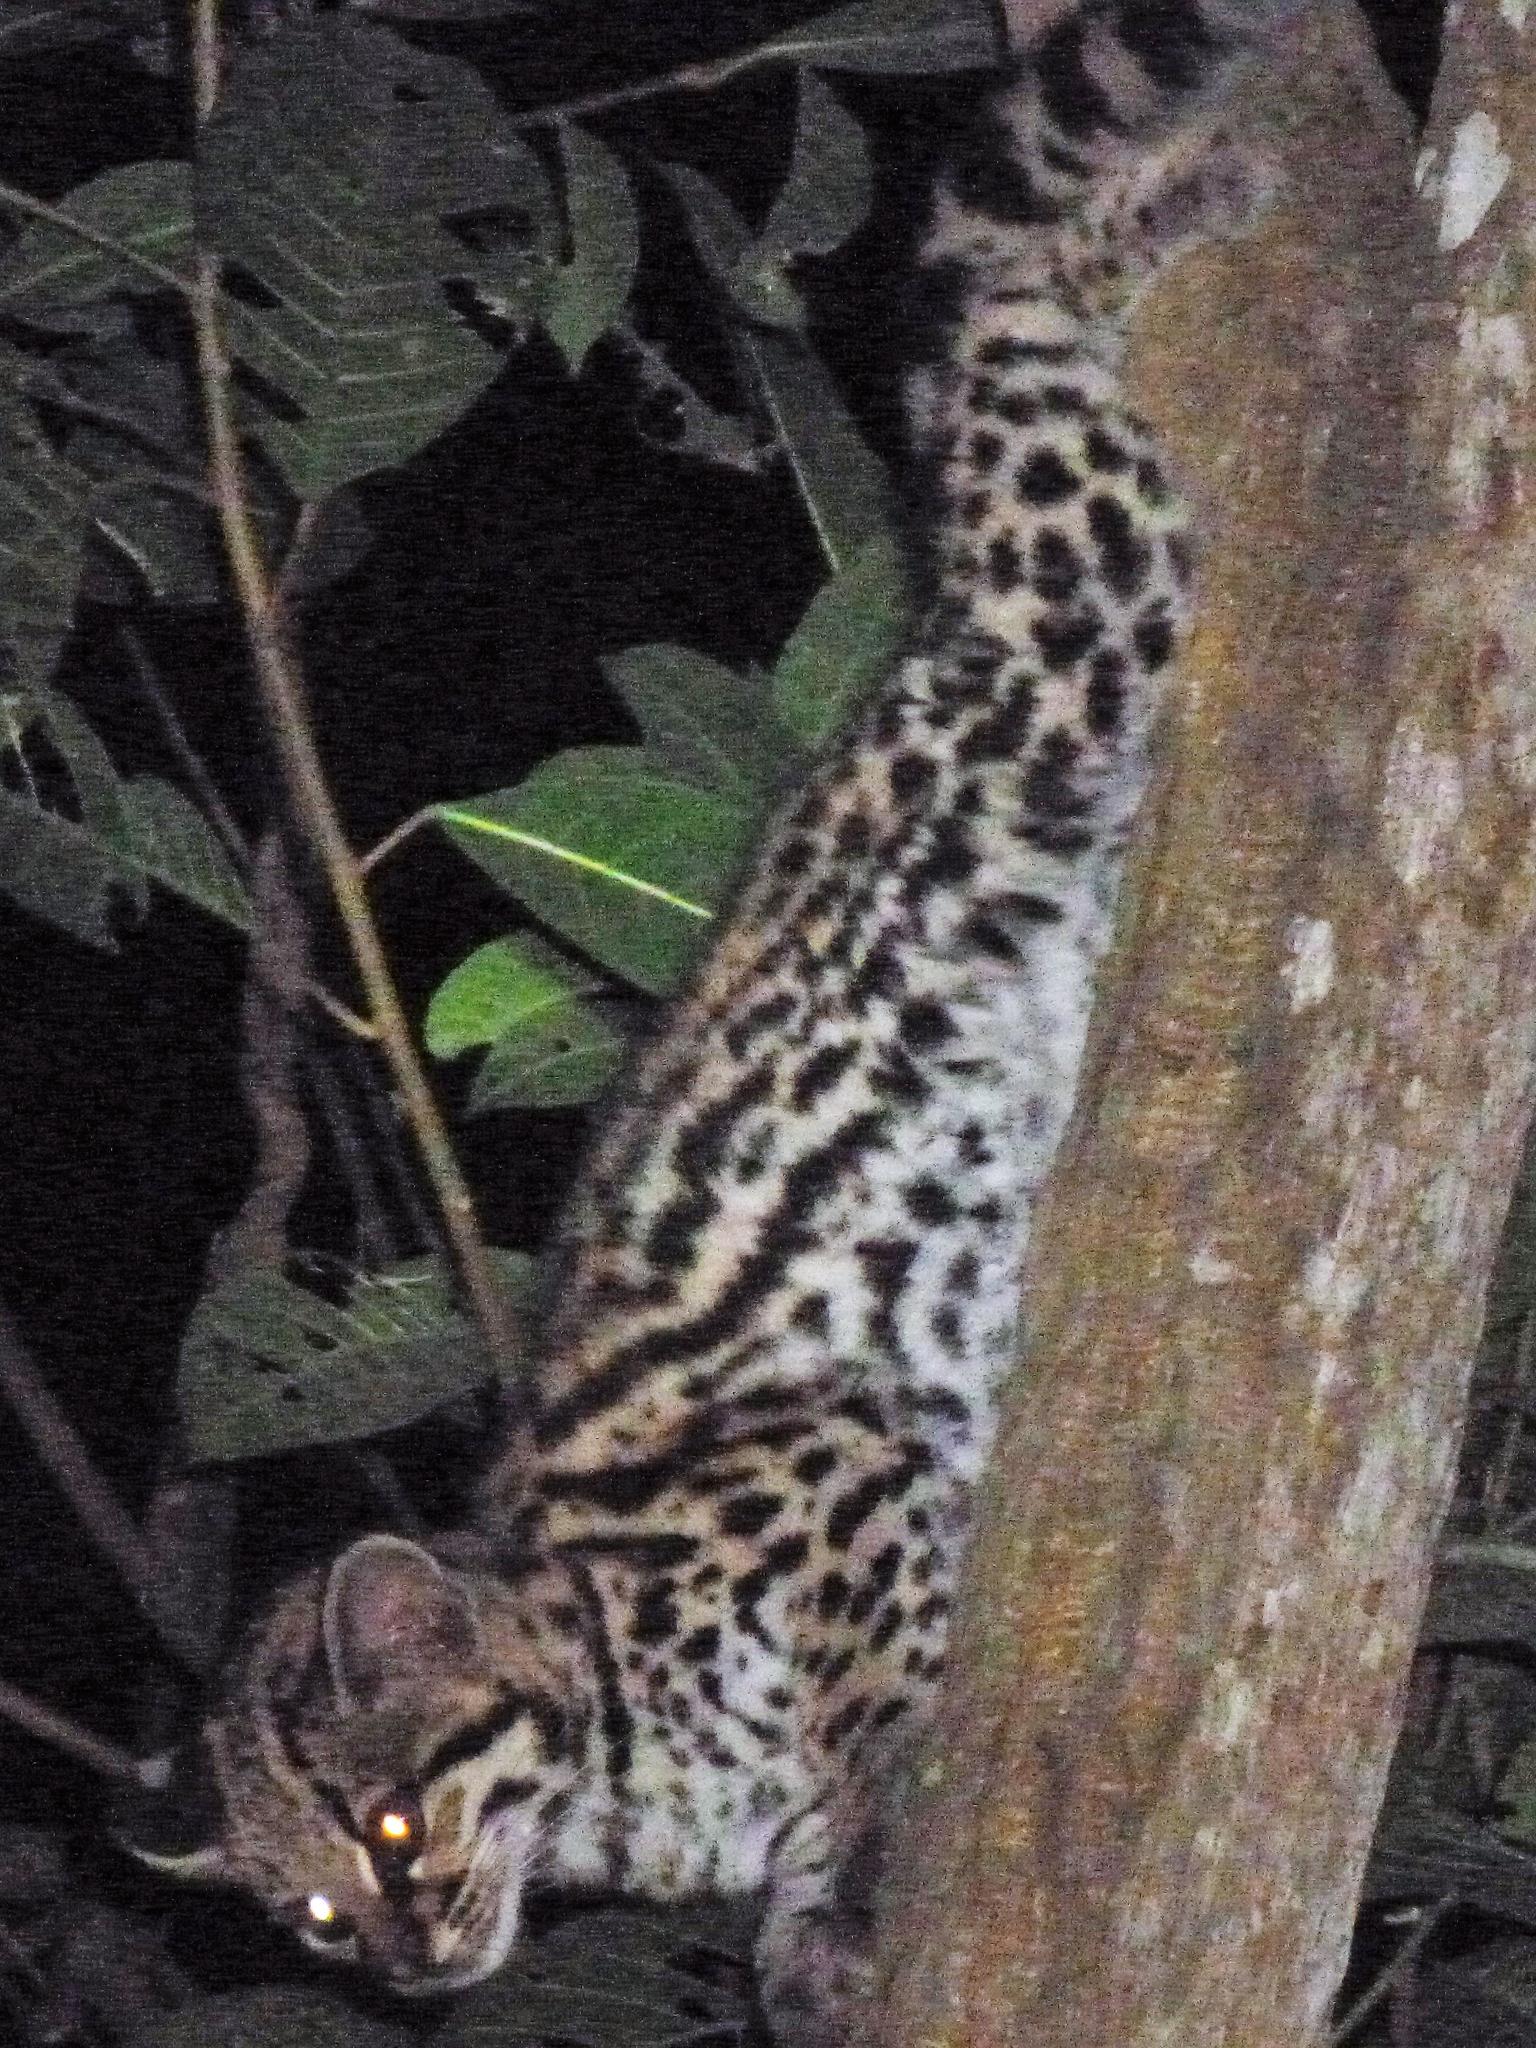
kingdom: Animalia
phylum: Chordata
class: Mammalia
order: Carnivora
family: Felidae
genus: Leopardus
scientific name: Leopardus wiedii
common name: Margay
